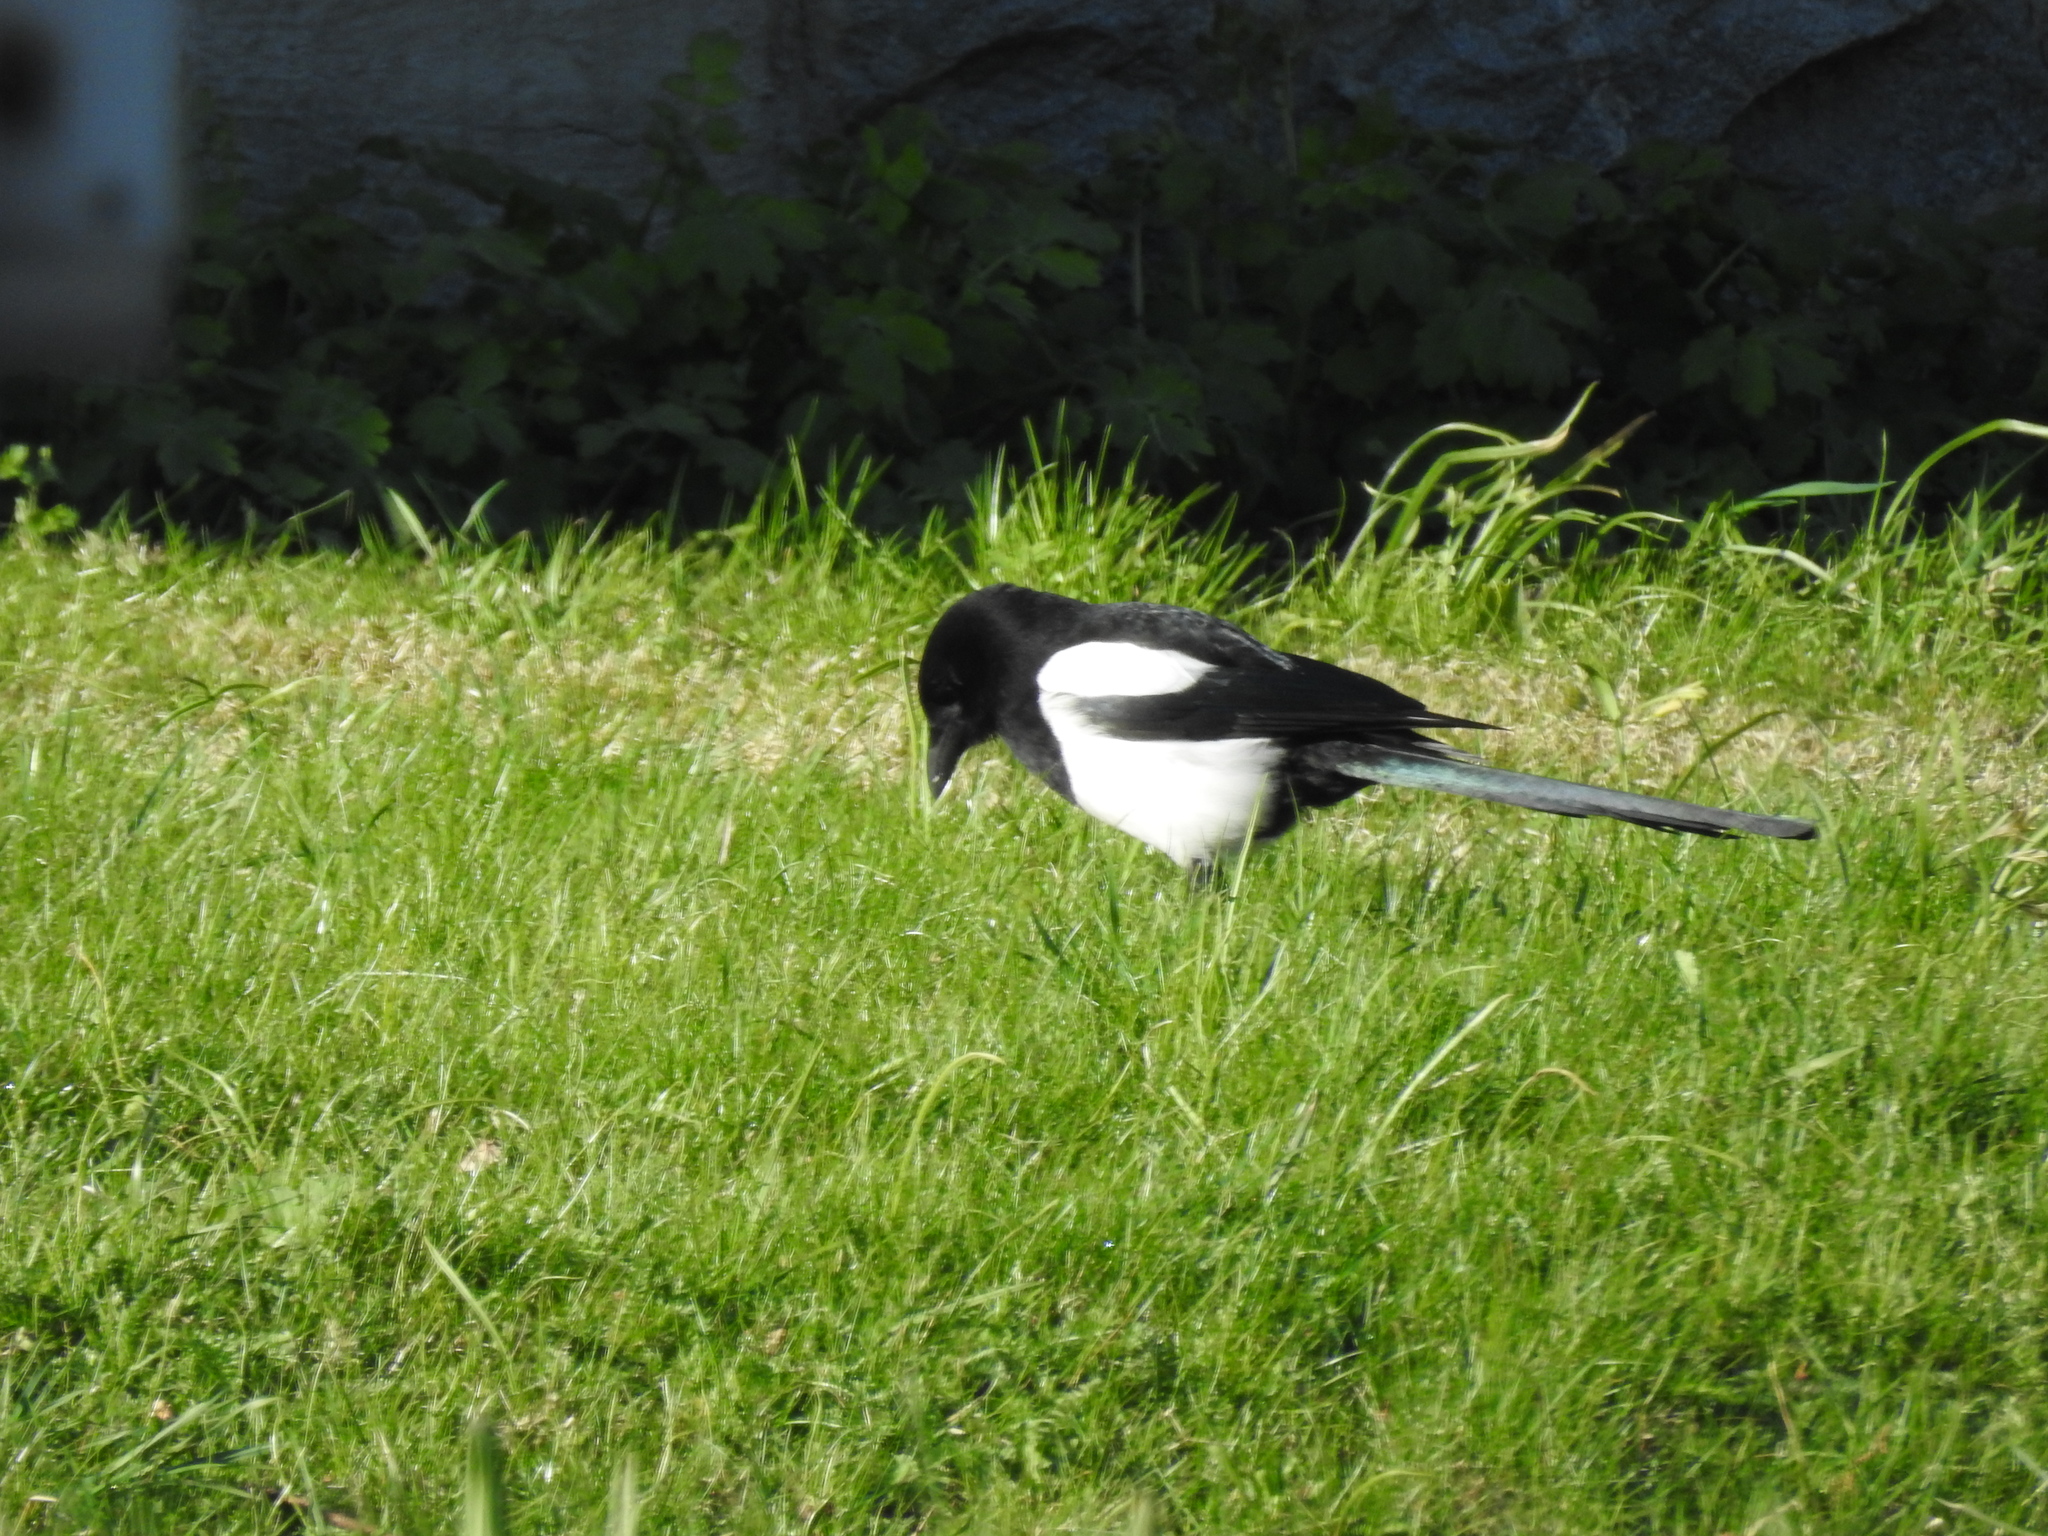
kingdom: Animalia
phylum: Chordata
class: Aves
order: Passeriformes
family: Corvidae
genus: Pica
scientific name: Pica pica
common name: Eurasian magpie
